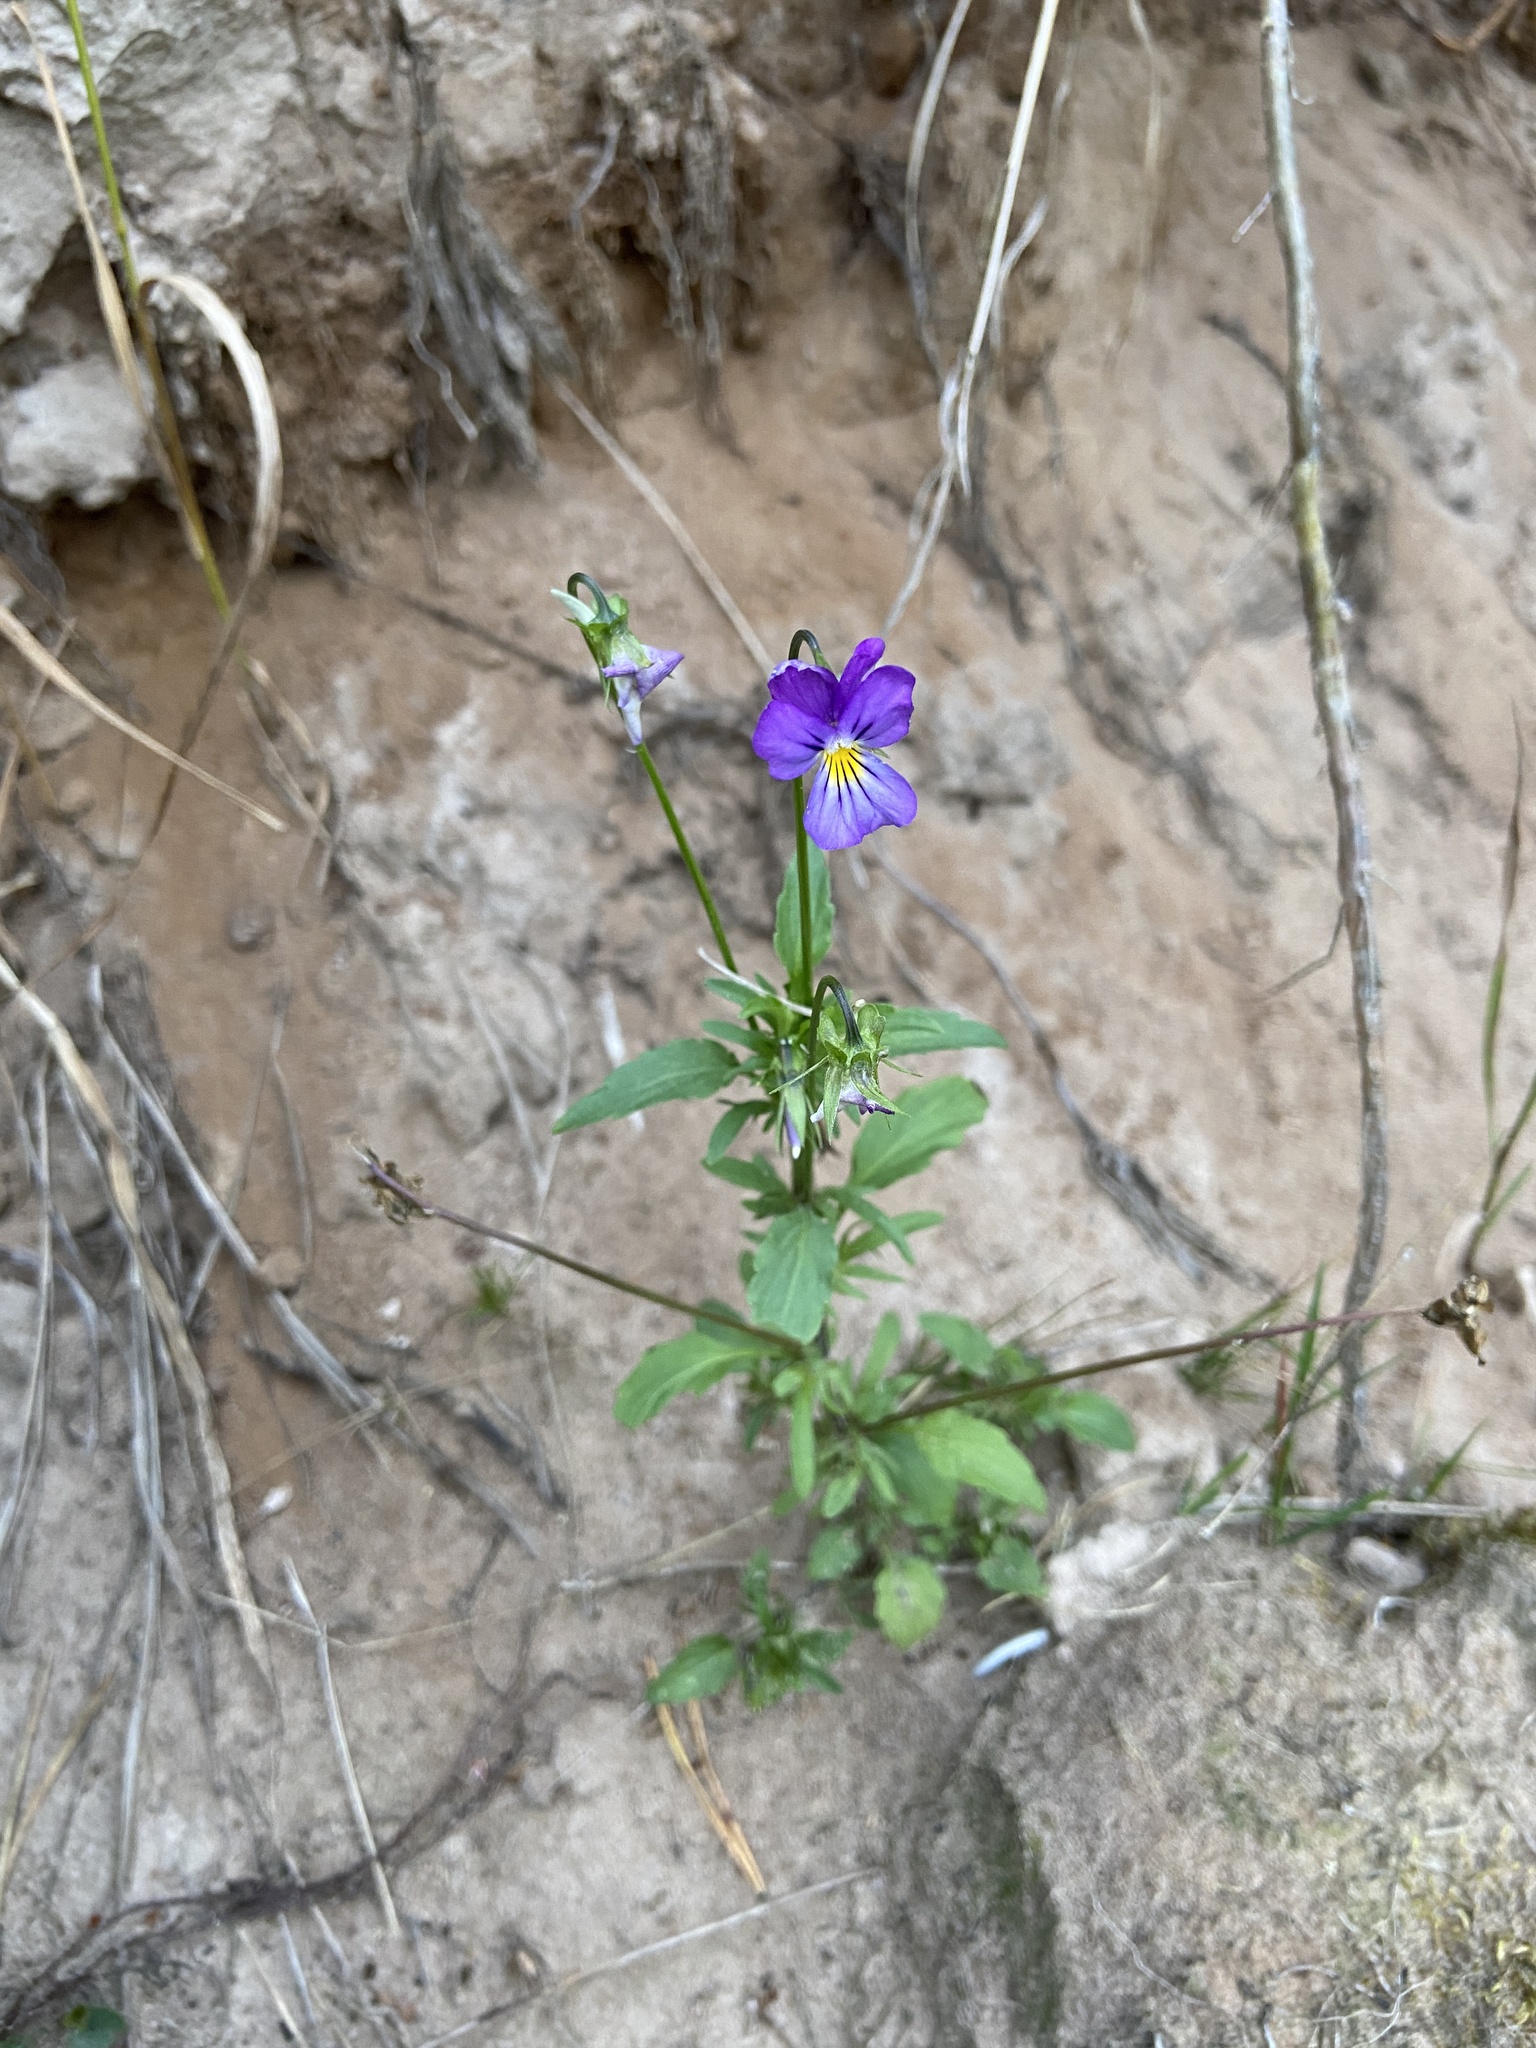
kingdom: Plantae
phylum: Tracheophyta
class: Magnoliopsida
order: Malpighiales
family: Violaceae
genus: Viola
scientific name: Viola tricolor
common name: Pansy
